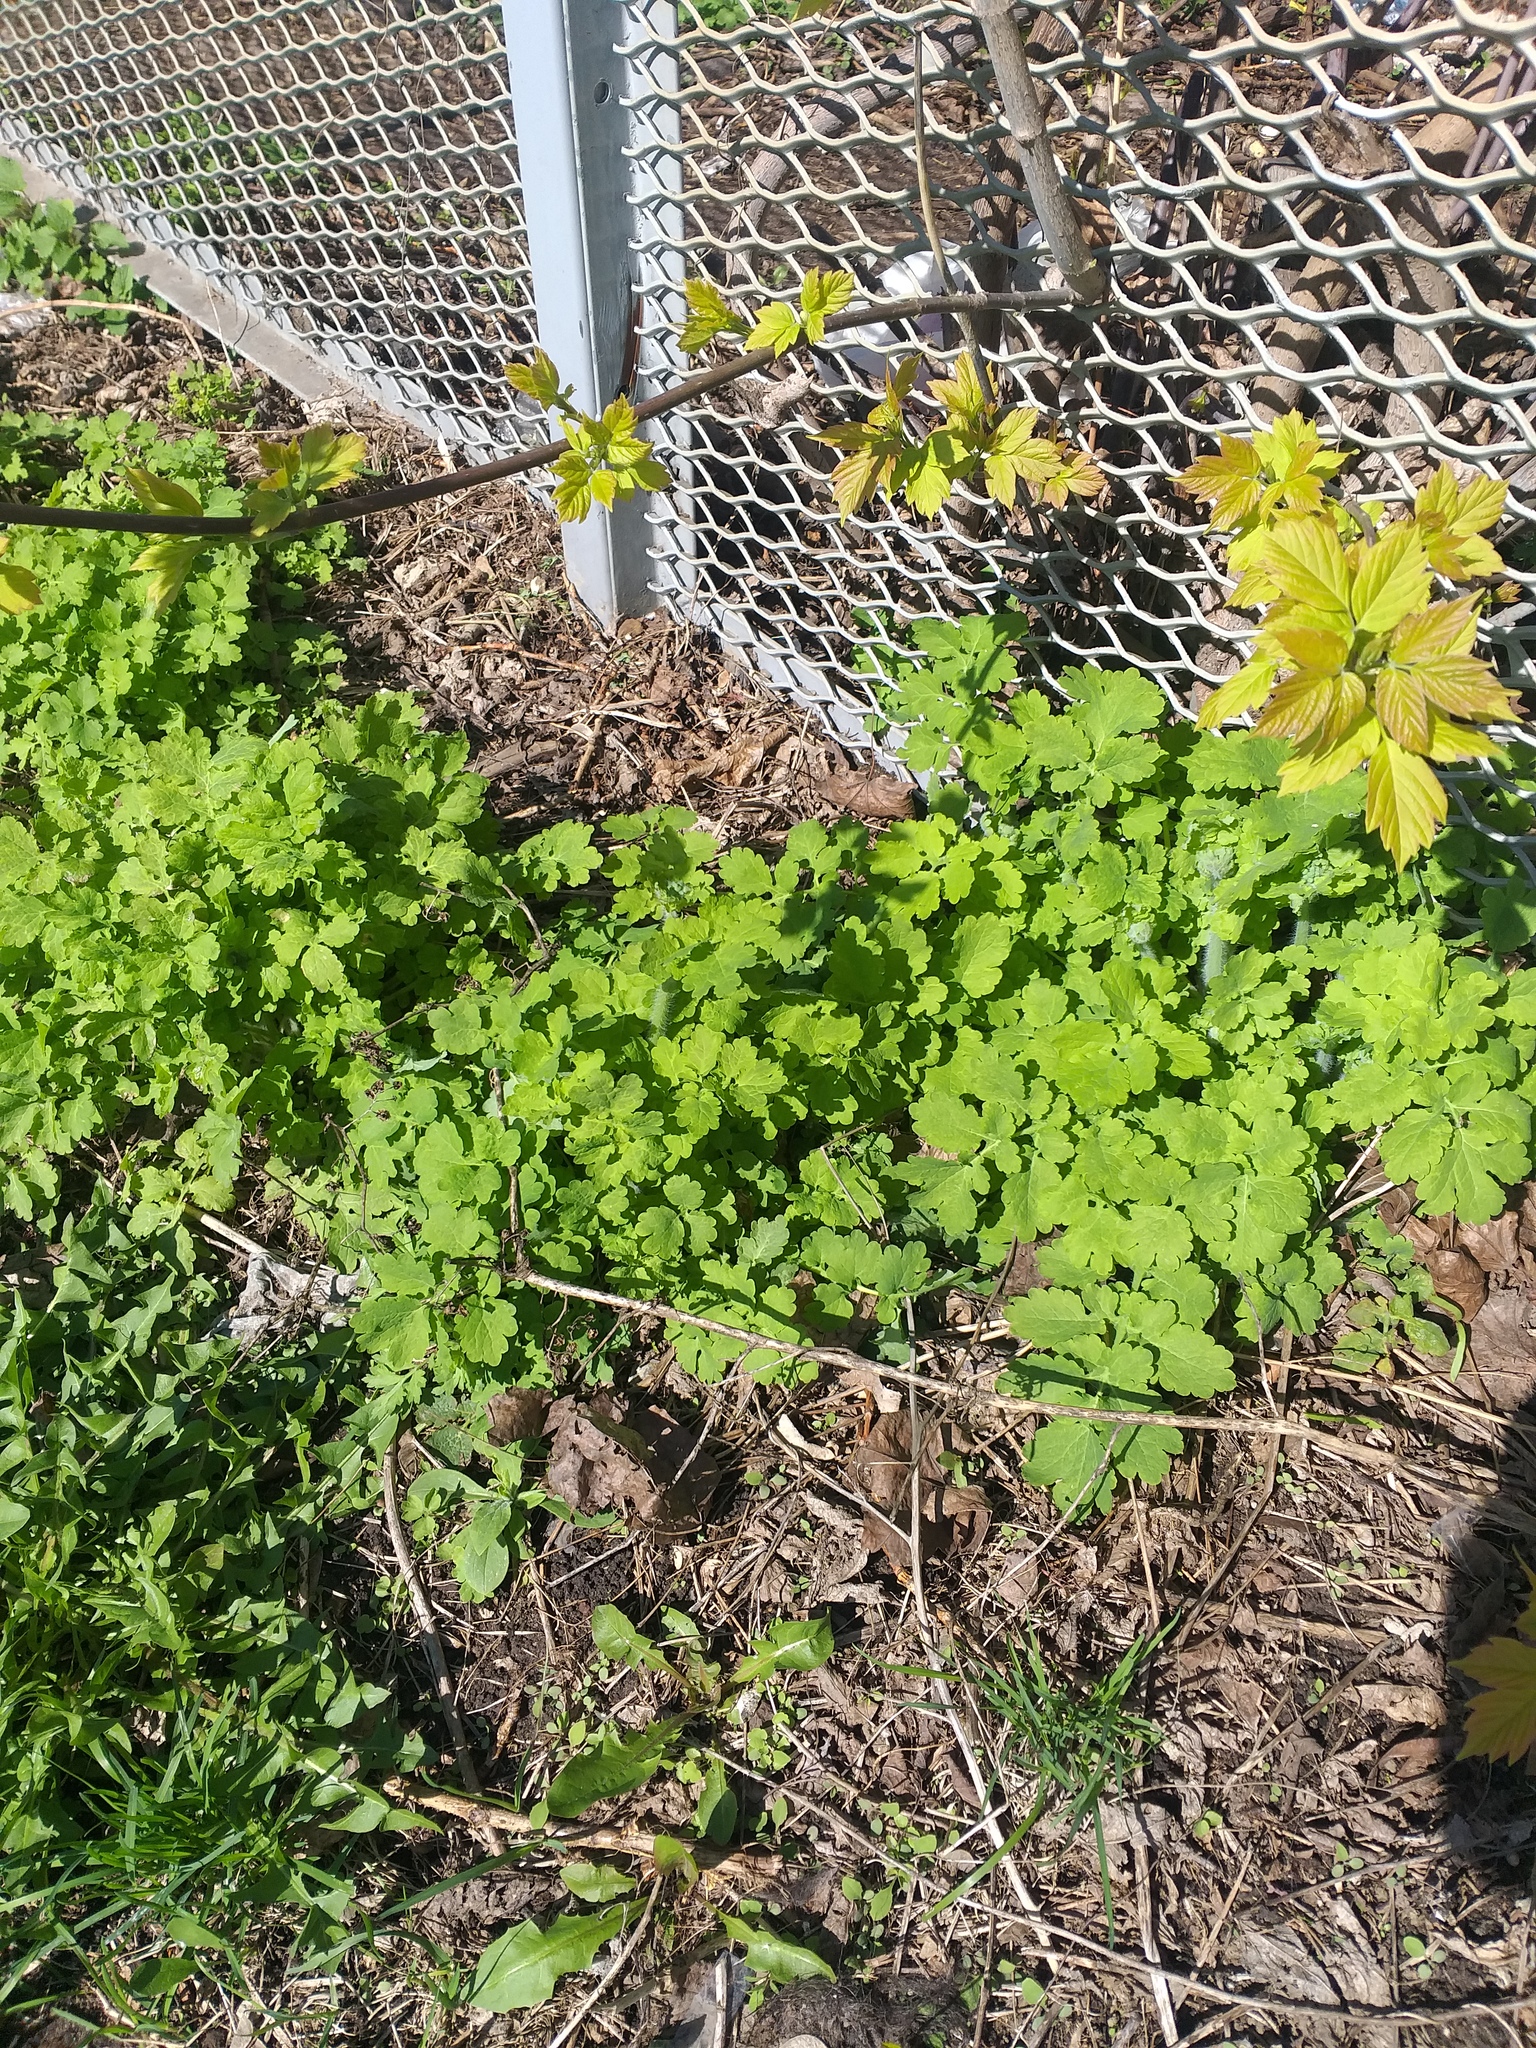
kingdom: Plantae
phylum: Tracheophyta
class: Magnoliopsida
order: Ranunculales
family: Papaveraceae
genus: Chelidonium
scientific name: Chelidonium majus
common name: Greater celandine
